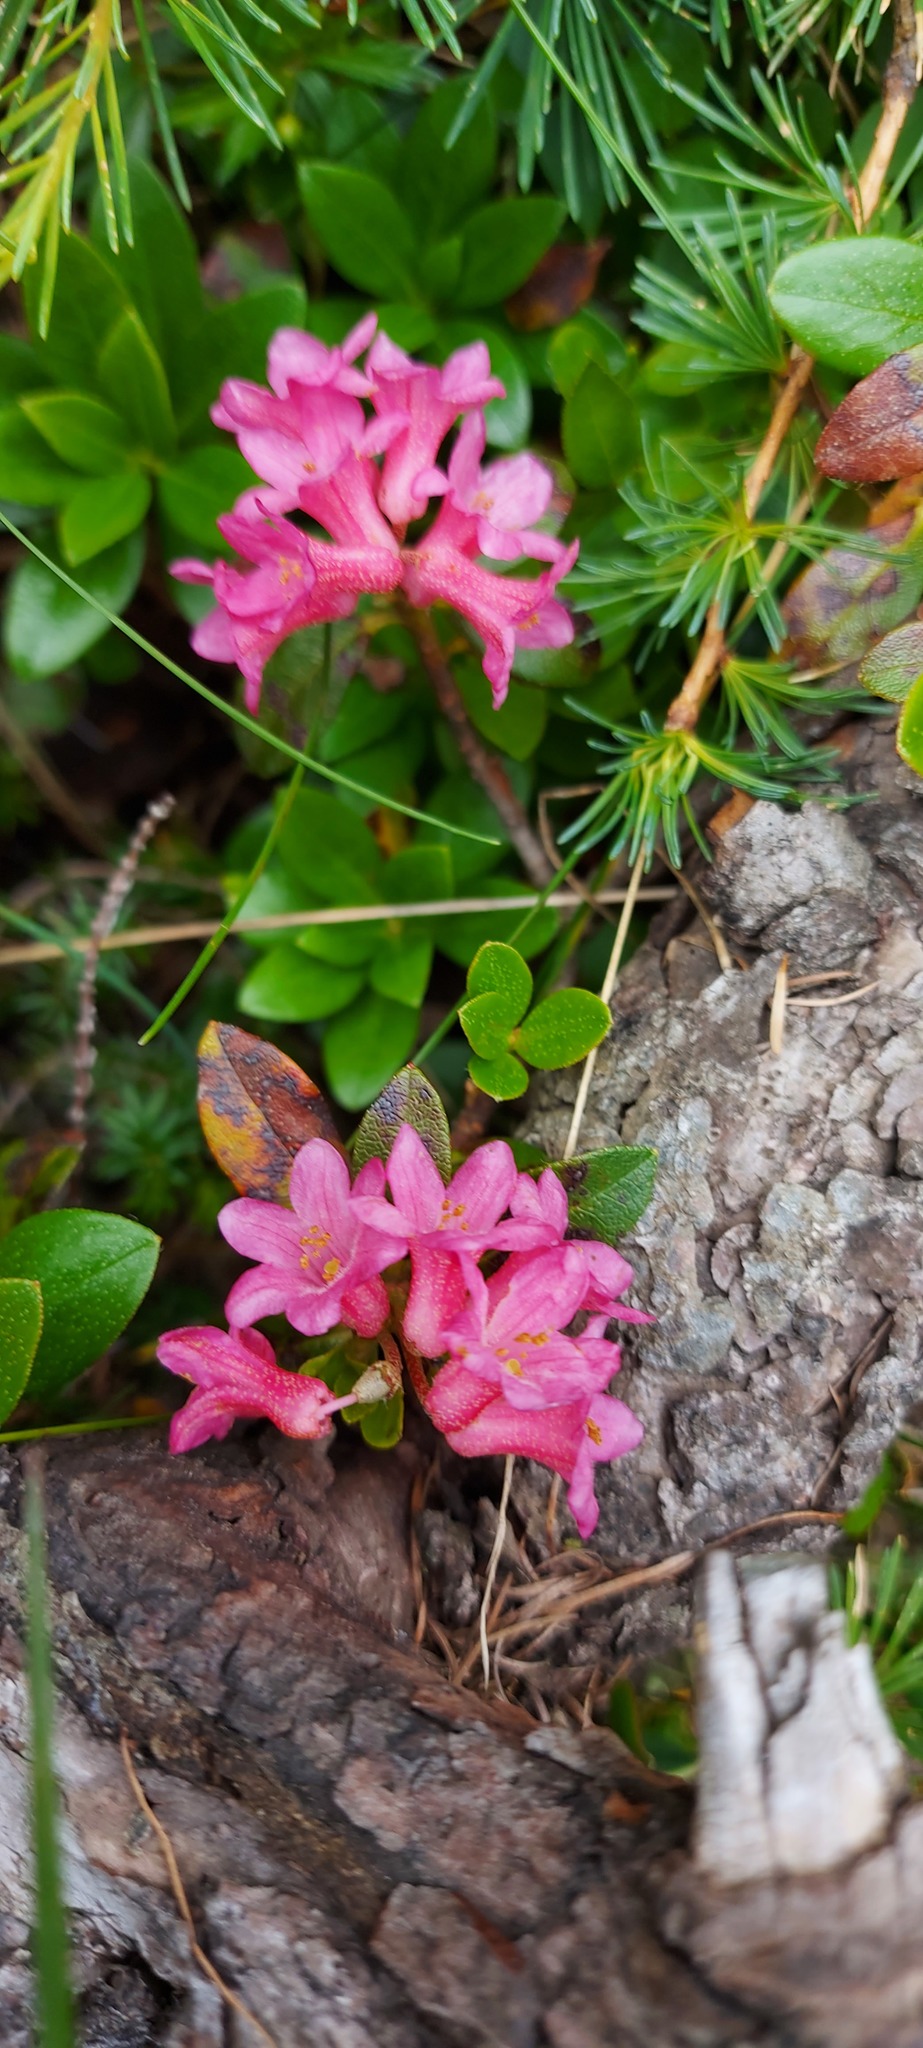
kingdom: Plantae
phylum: Tracheophyta
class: Magnoliopsida
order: Ericales
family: Ericaceae
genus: Rhododendron
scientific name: Rhododendron hirsutum
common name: Hairy alpenrose
